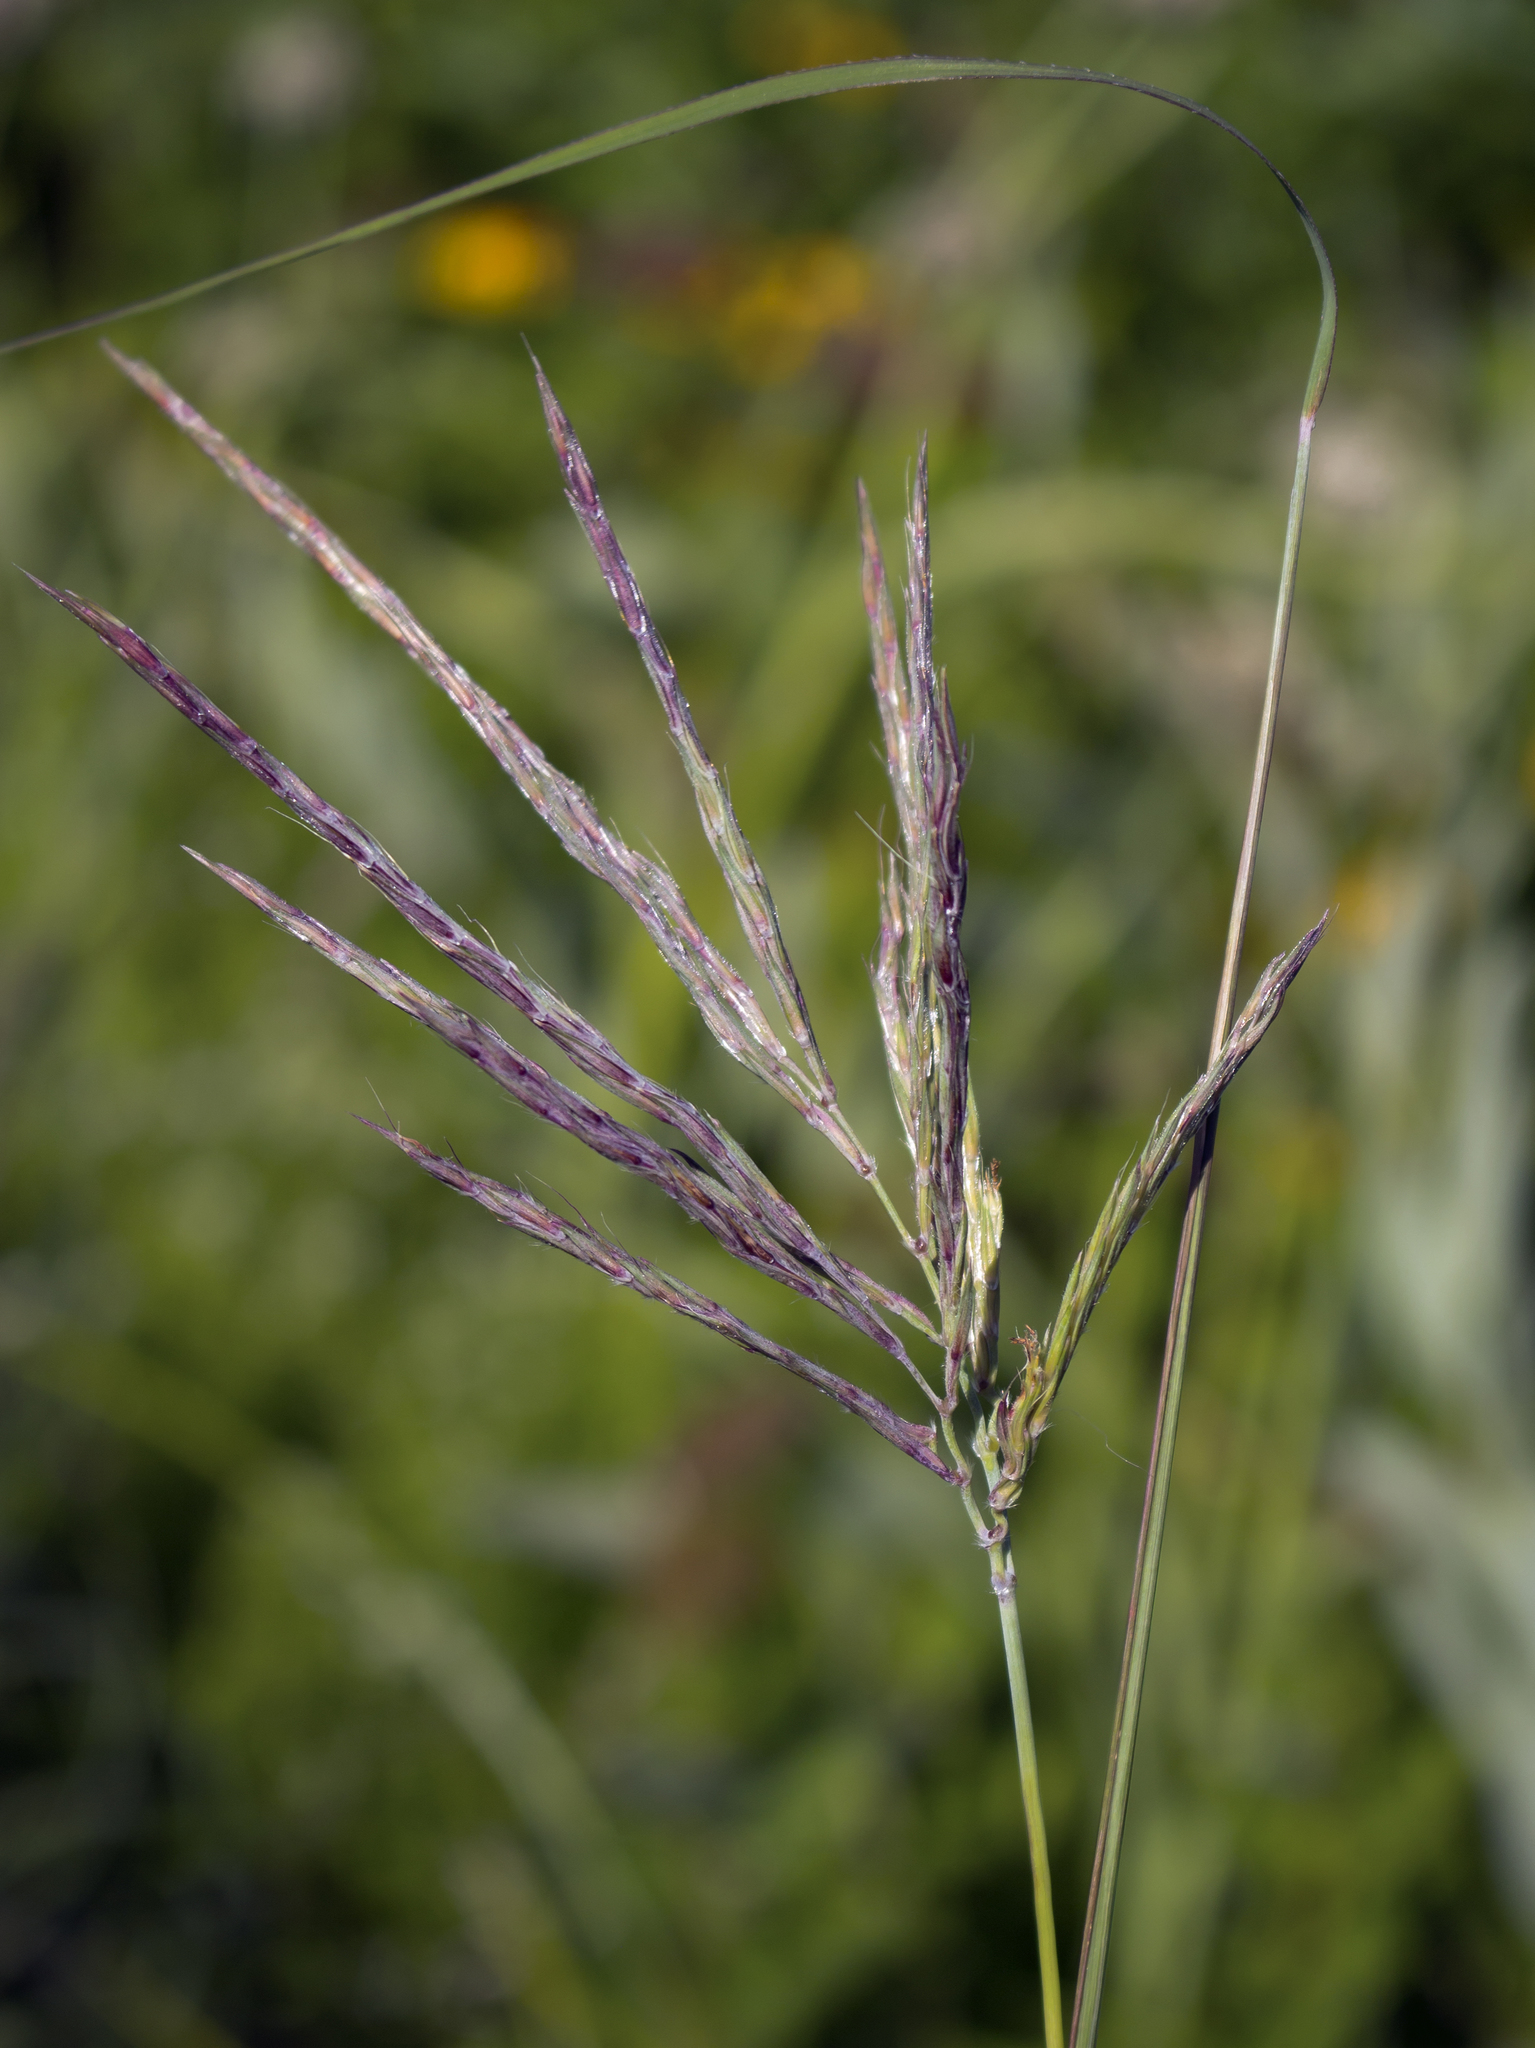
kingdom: Plantae
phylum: Tracheophyta
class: Liliopsida
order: Poales
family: Poaceae
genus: Andropogon
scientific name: Andropogon gerardi
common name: Big bluestem
